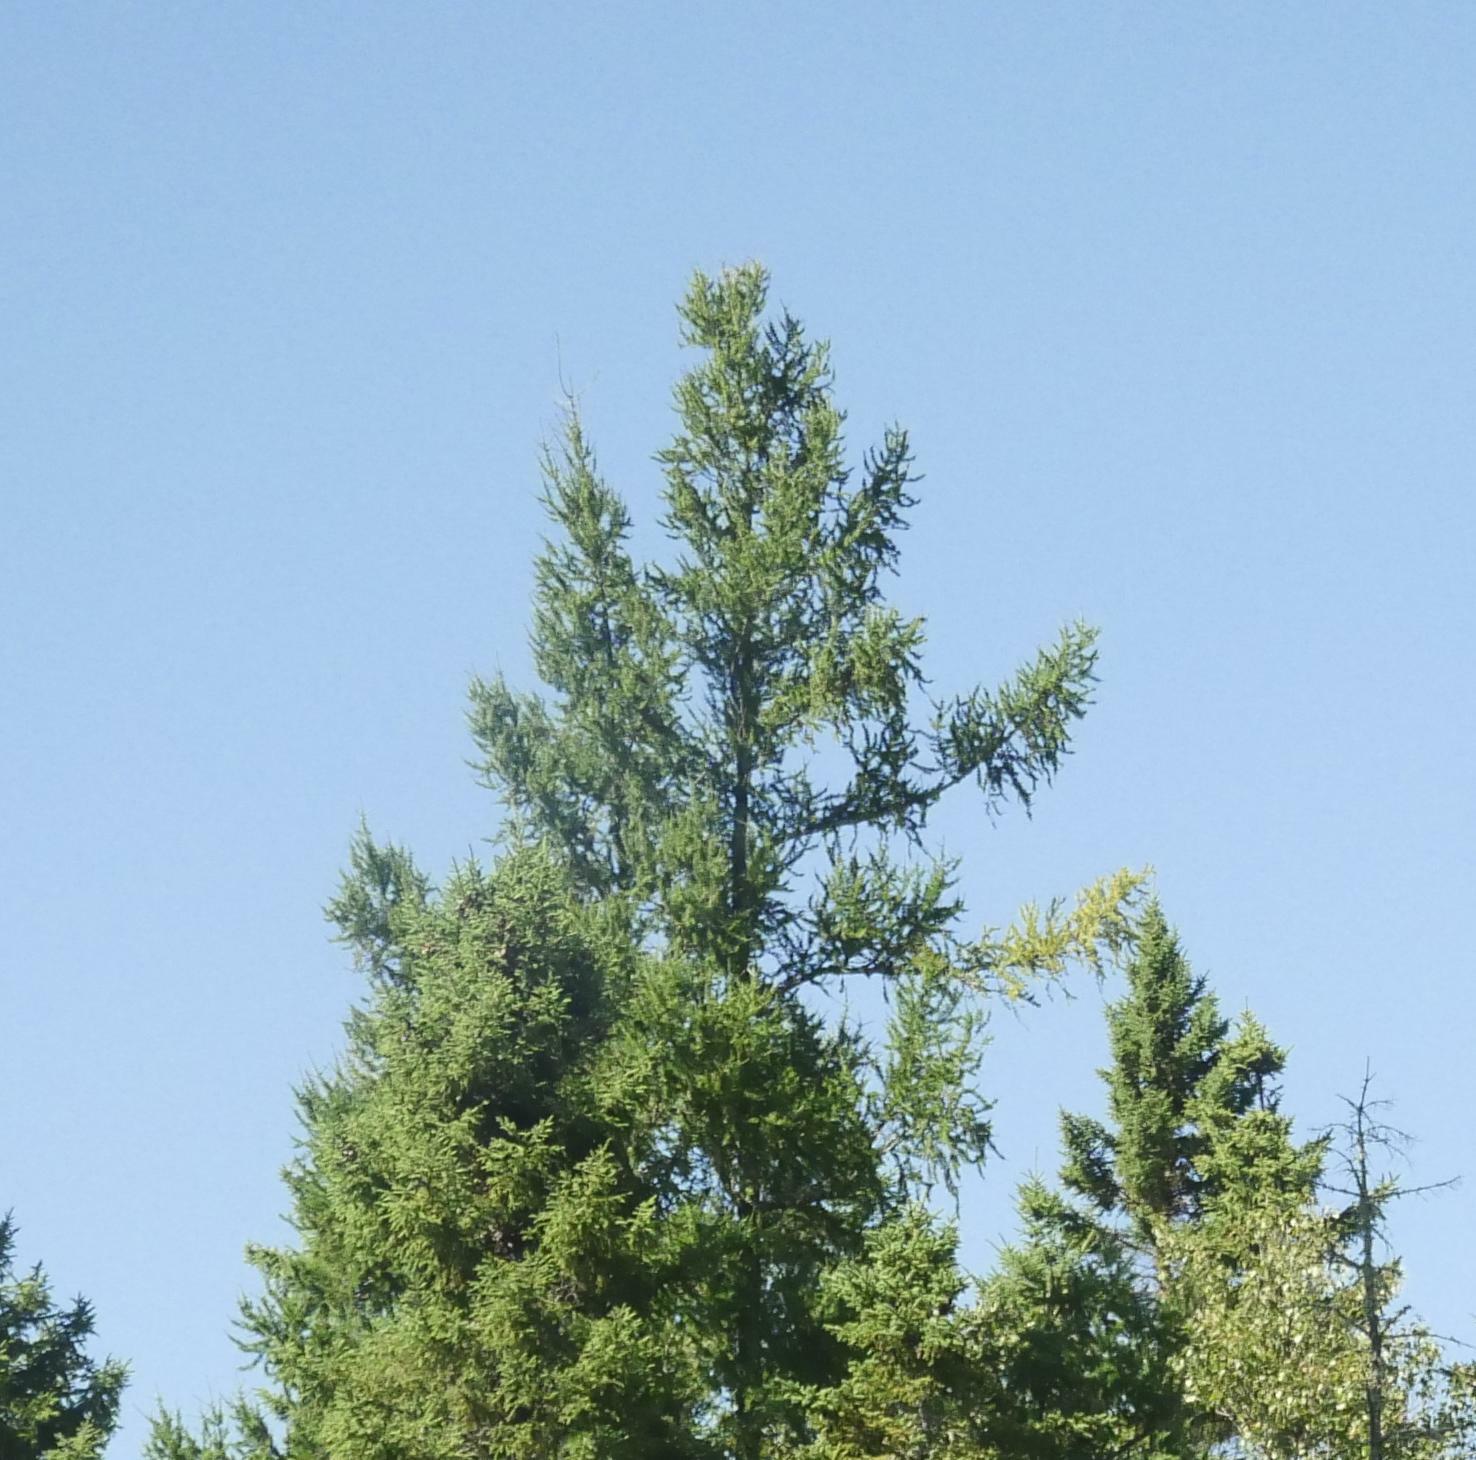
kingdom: Plantae
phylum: Tracheophyta
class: Pinopsida
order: Pinales
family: Pinaceae
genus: Larix
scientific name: Larix laricina
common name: American larch
